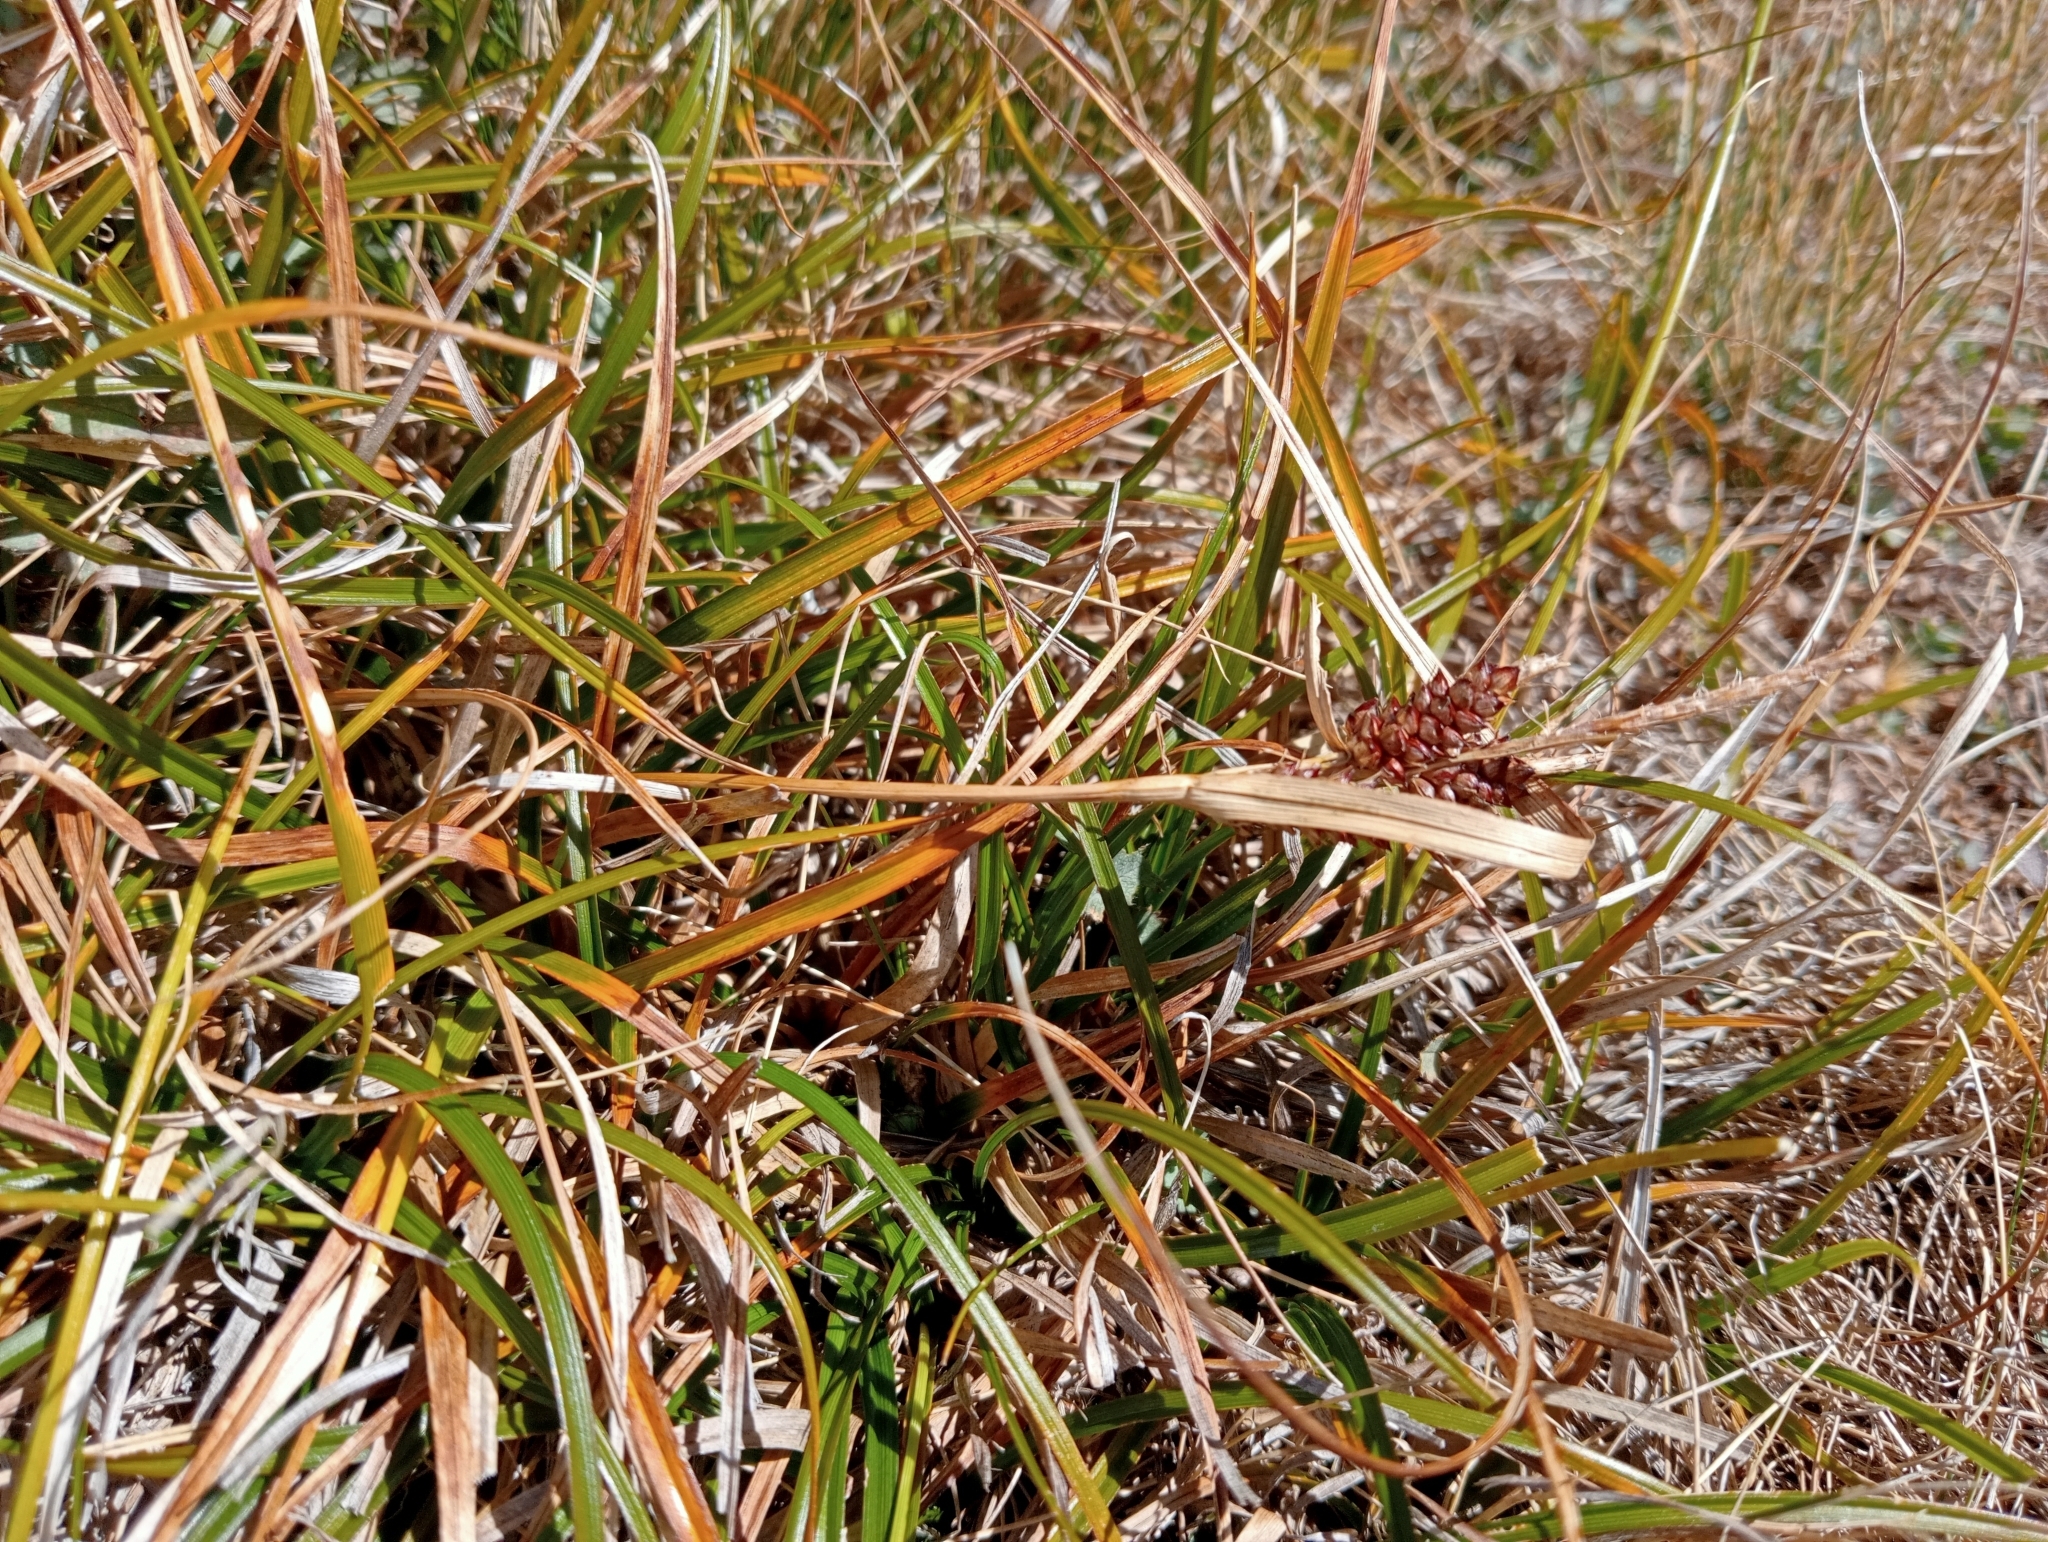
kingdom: Plantae
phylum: Tracheophyta
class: Liliopsida
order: Poales
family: Cyperaceae
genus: Carex
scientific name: Carex wakatipu
